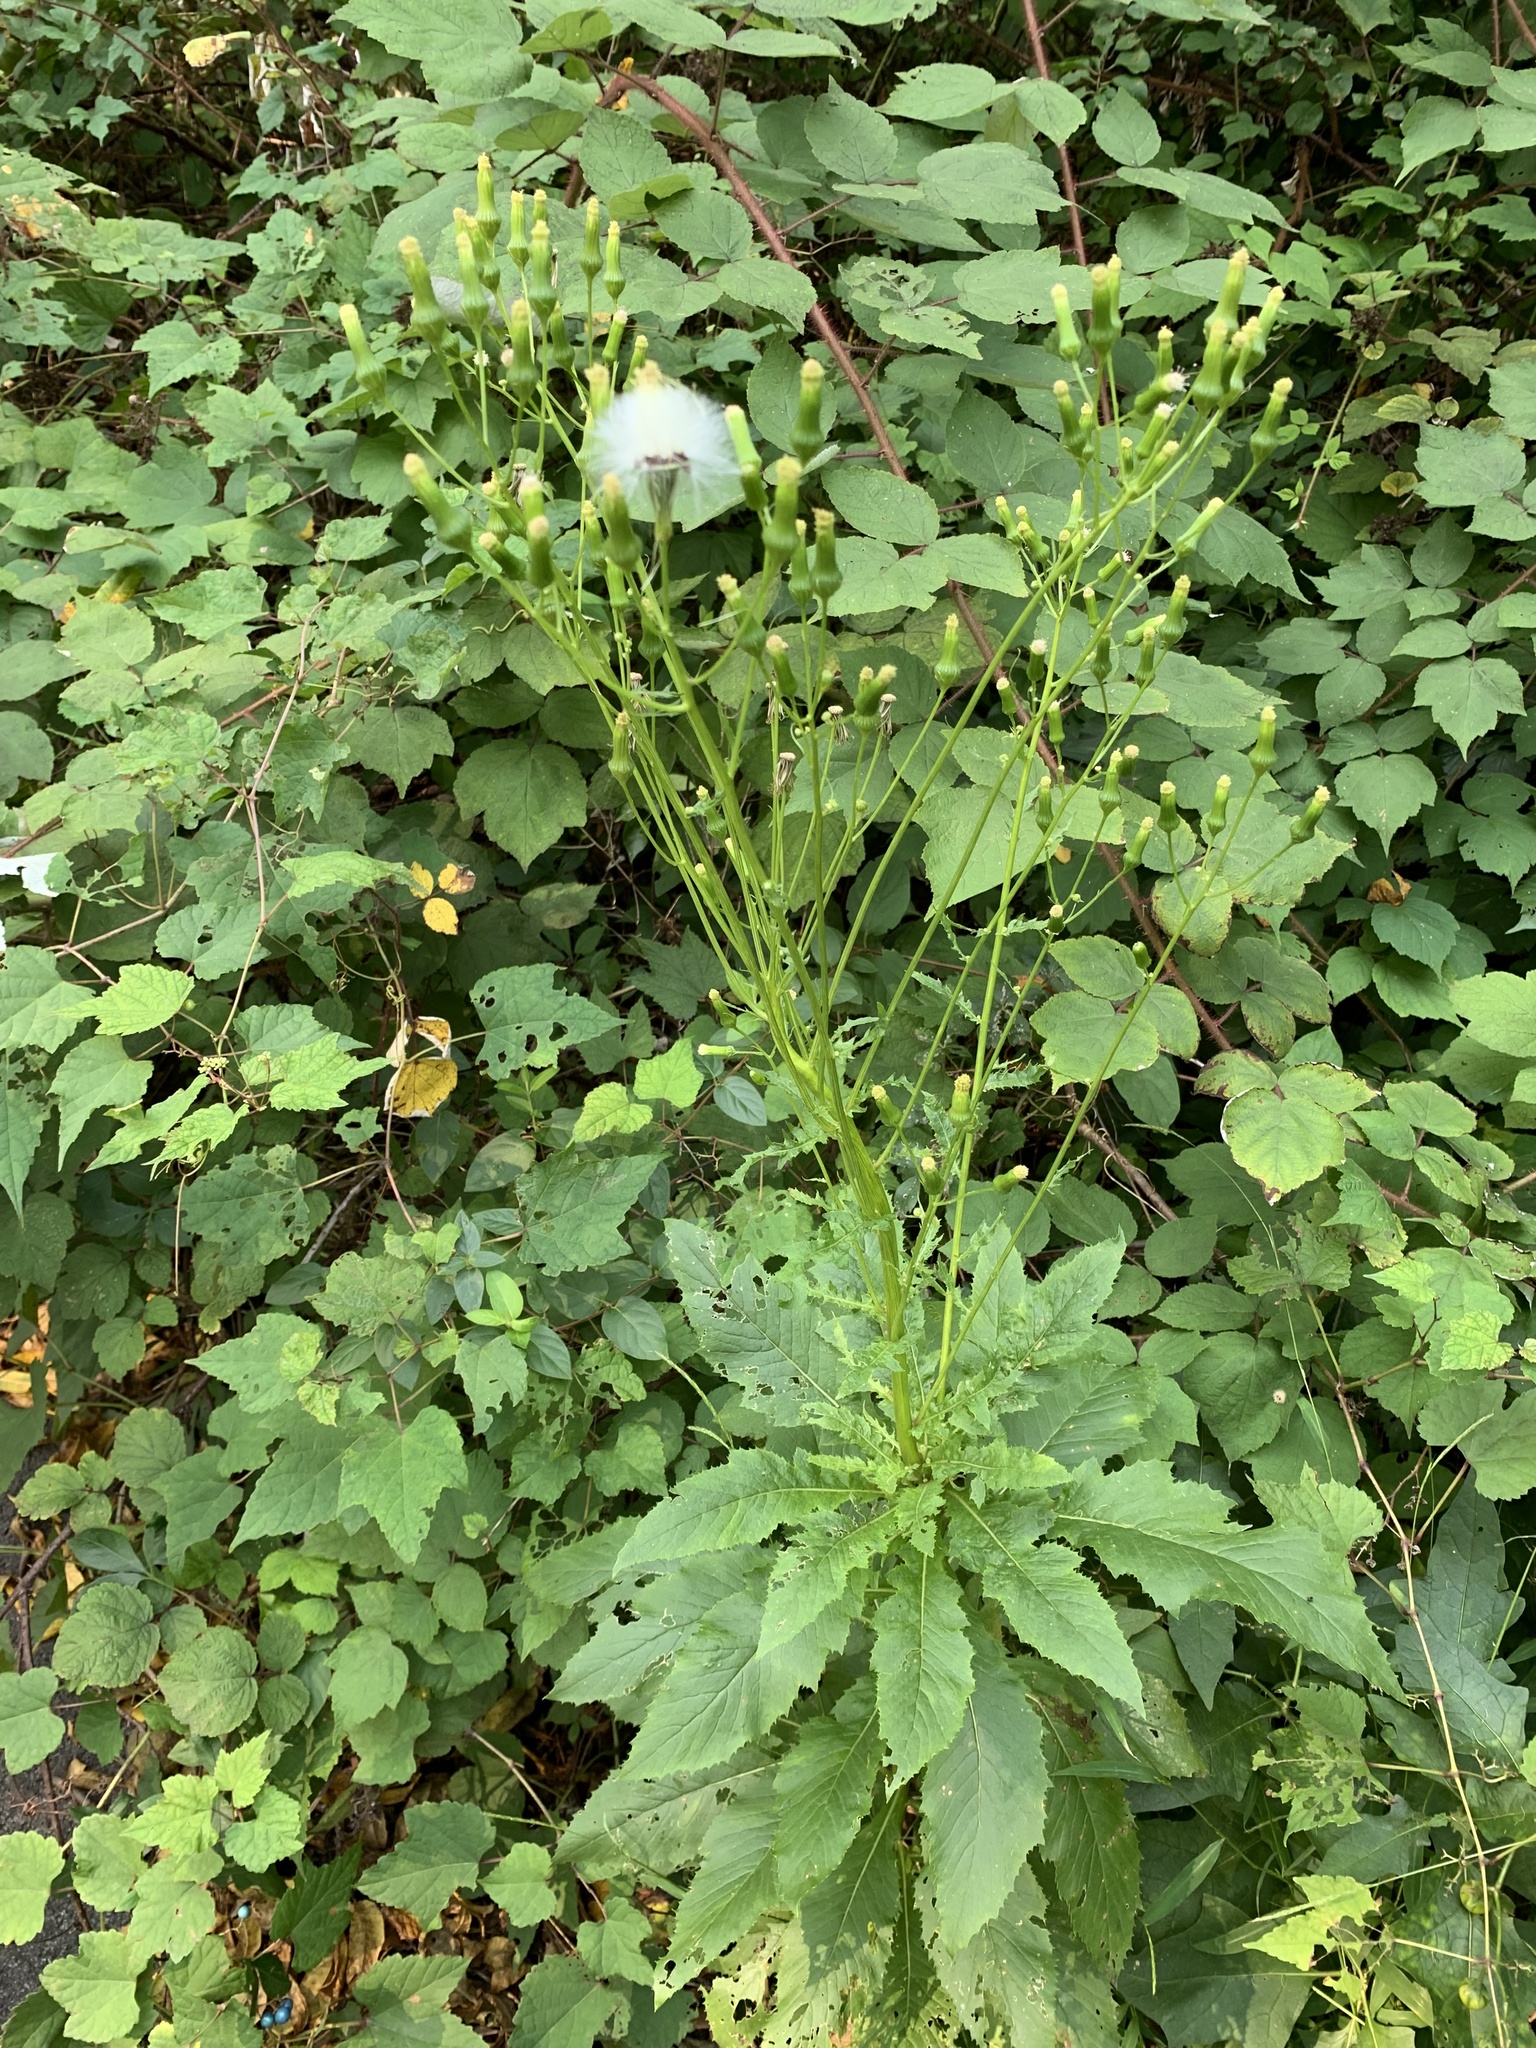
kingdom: Plantae
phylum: Tracheophyta
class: Magnoliopsida
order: Asterales
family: Asteraceae
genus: Erechtites
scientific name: Erechtites hieraciifolius
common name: American burnweed
